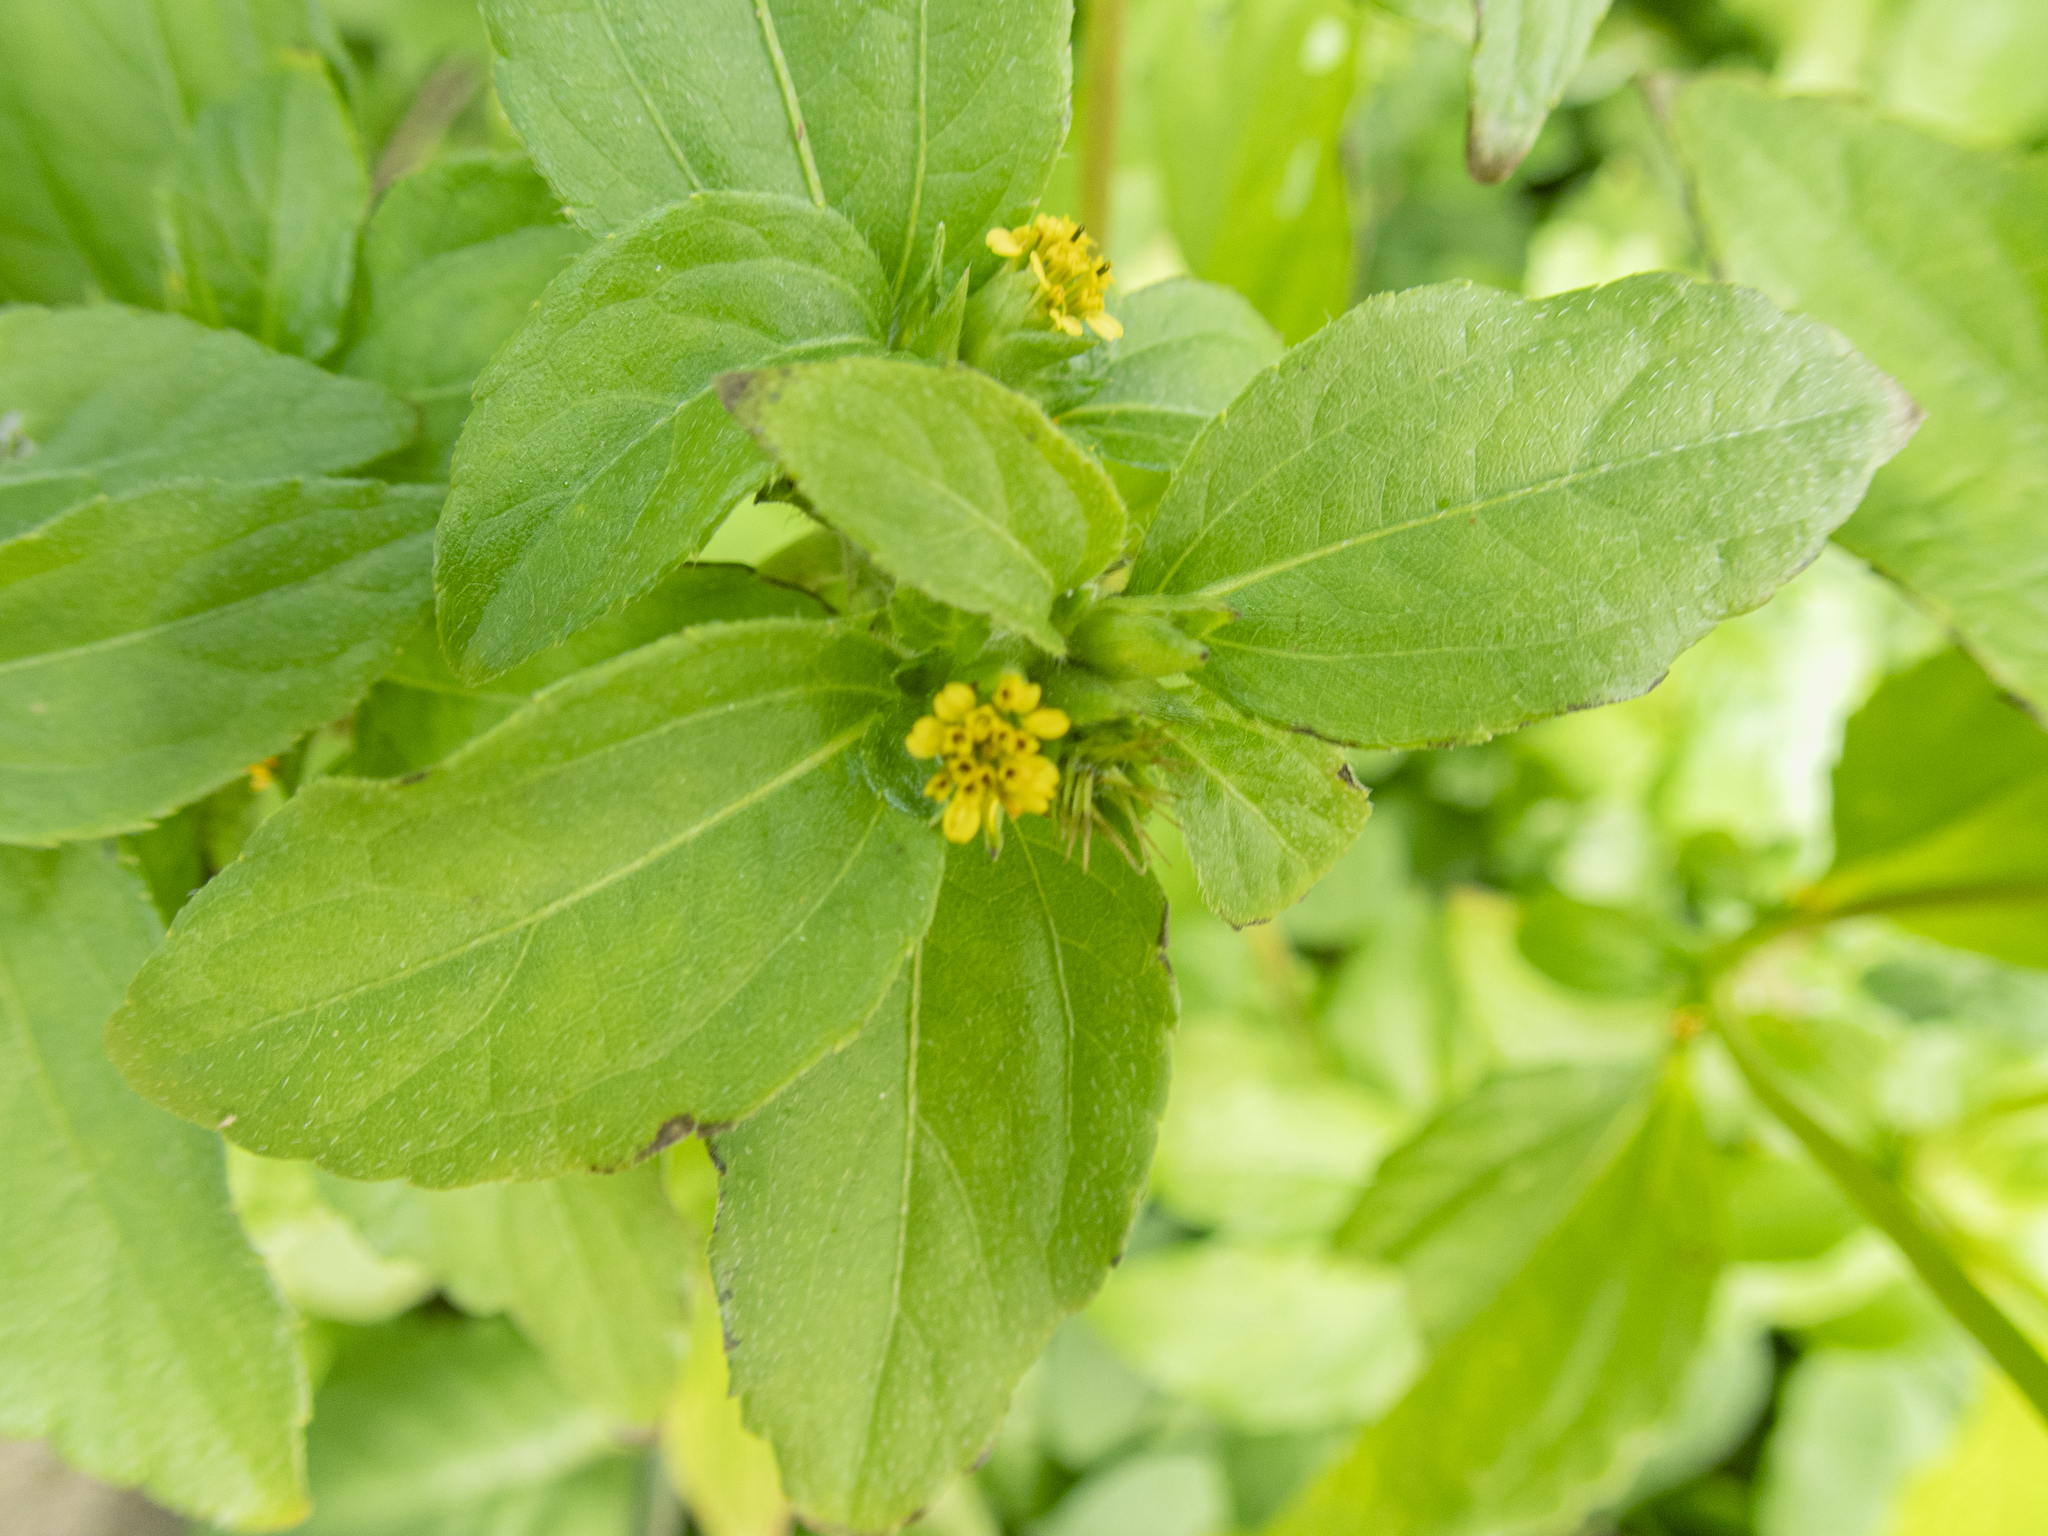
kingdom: Plantae
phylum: Tracheophyta
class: Magnoliopsida
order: Asterales
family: Asteraceae
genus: Synedrella
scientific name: Synedrella nodiflora
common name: Nodeweed
